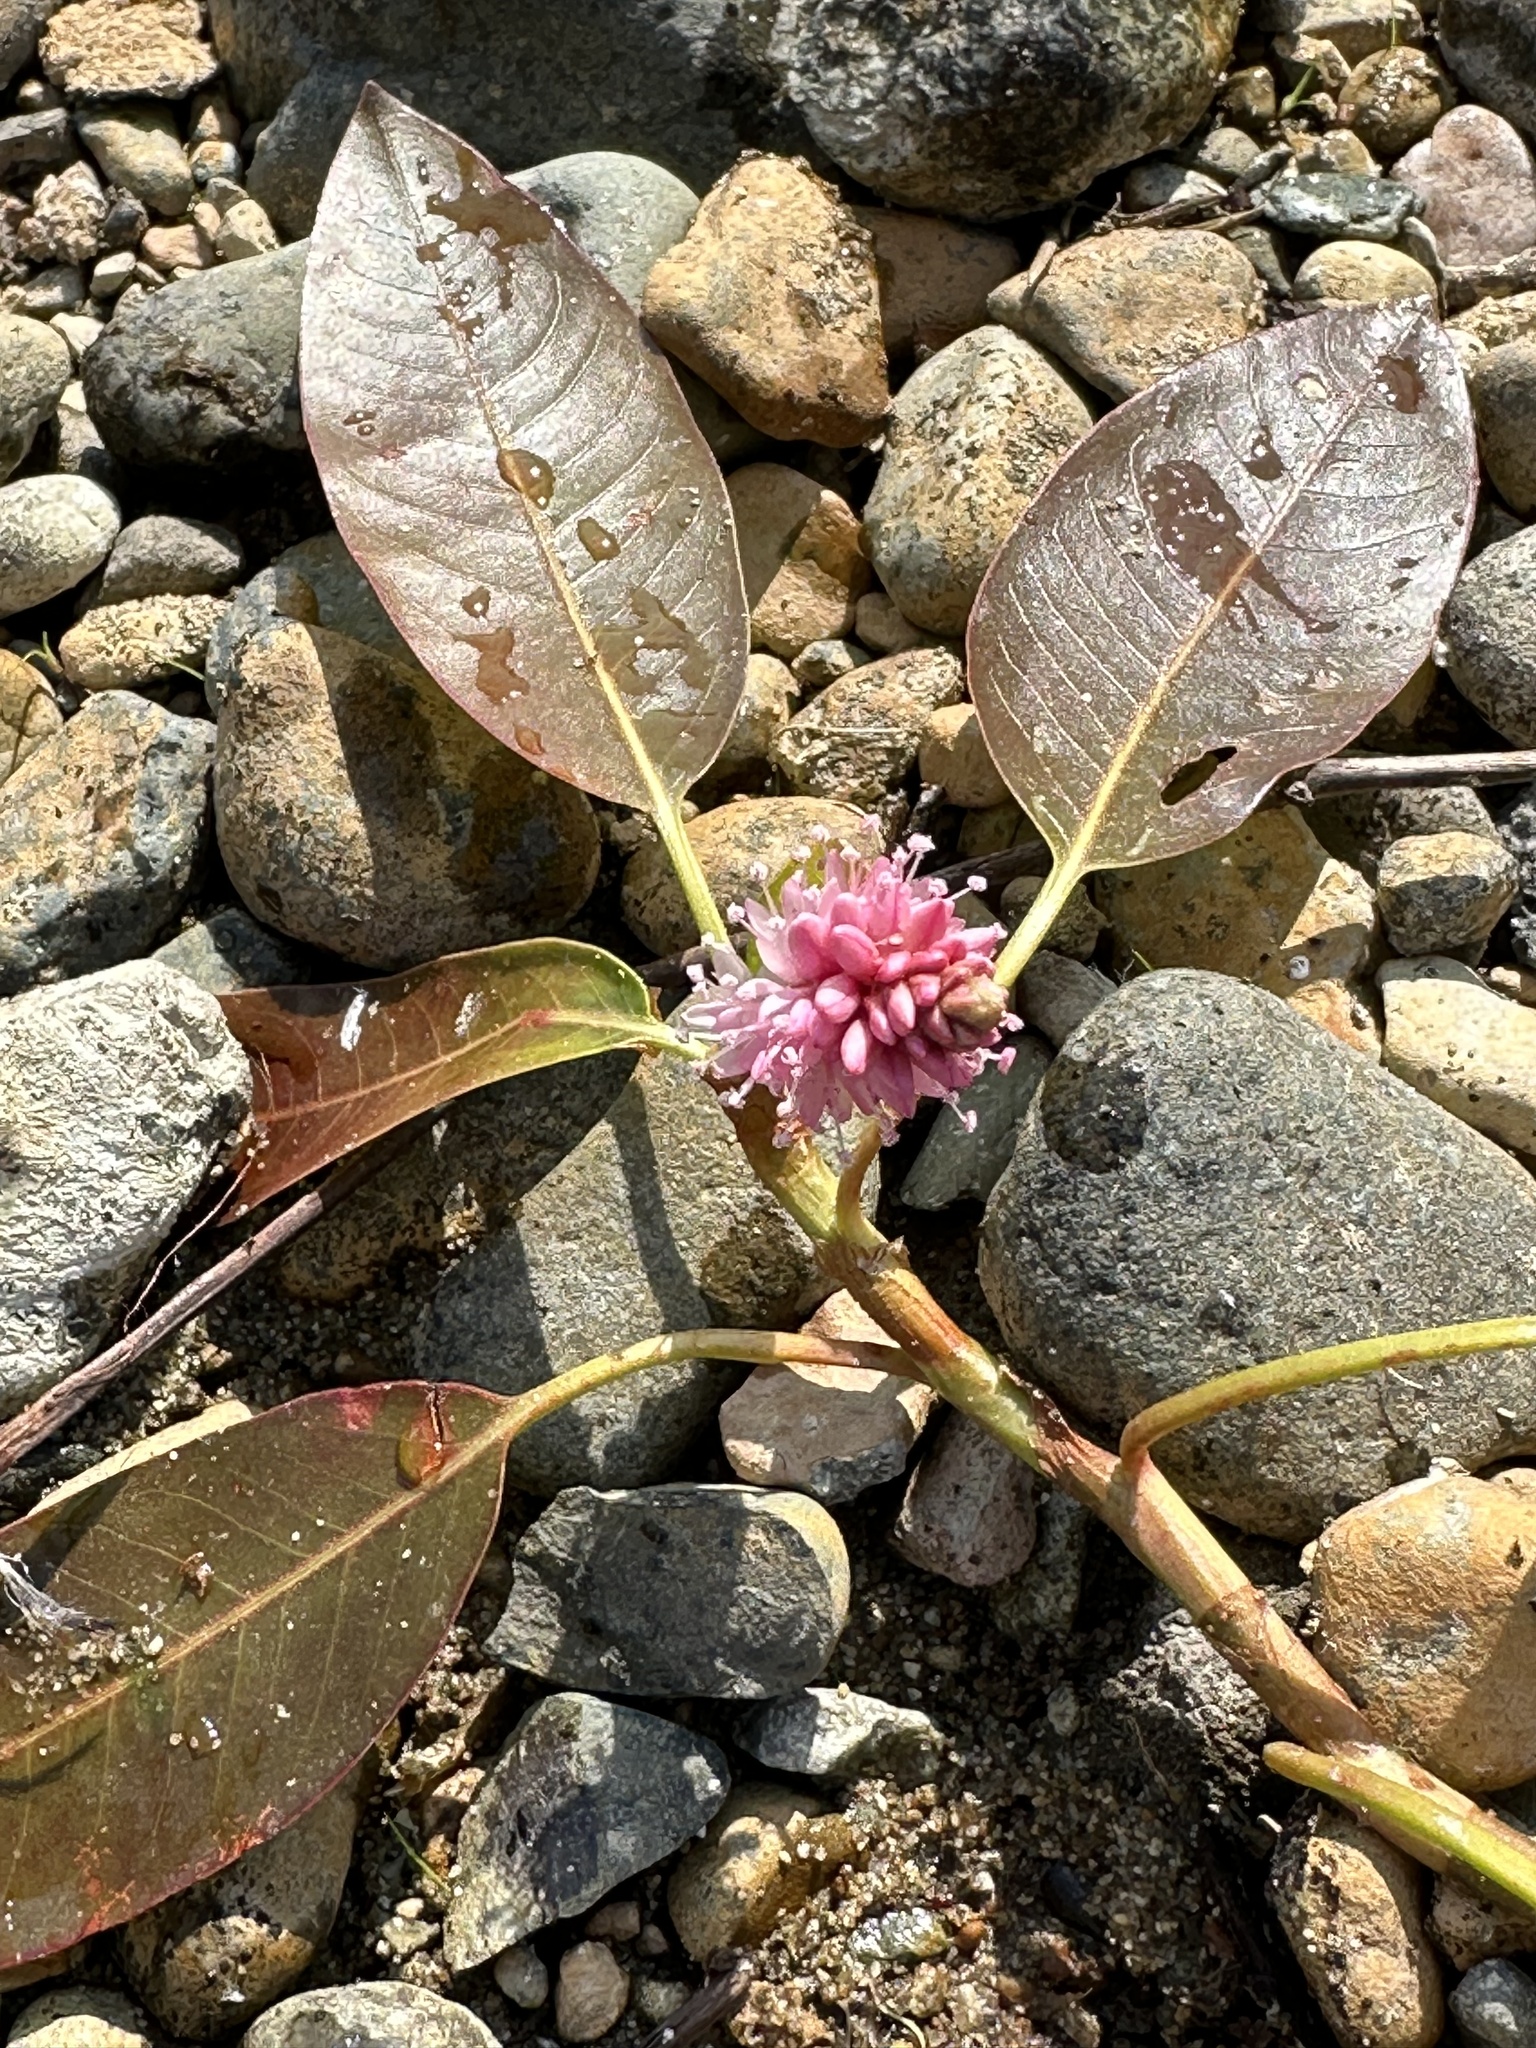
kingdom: Plantae
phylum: Tracheophyta
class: Magnoliopsida
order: Caryophyllales
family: Polygonaceae
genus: Persicaria
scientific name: Persicaria amphibia
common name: Amphibious bistort
